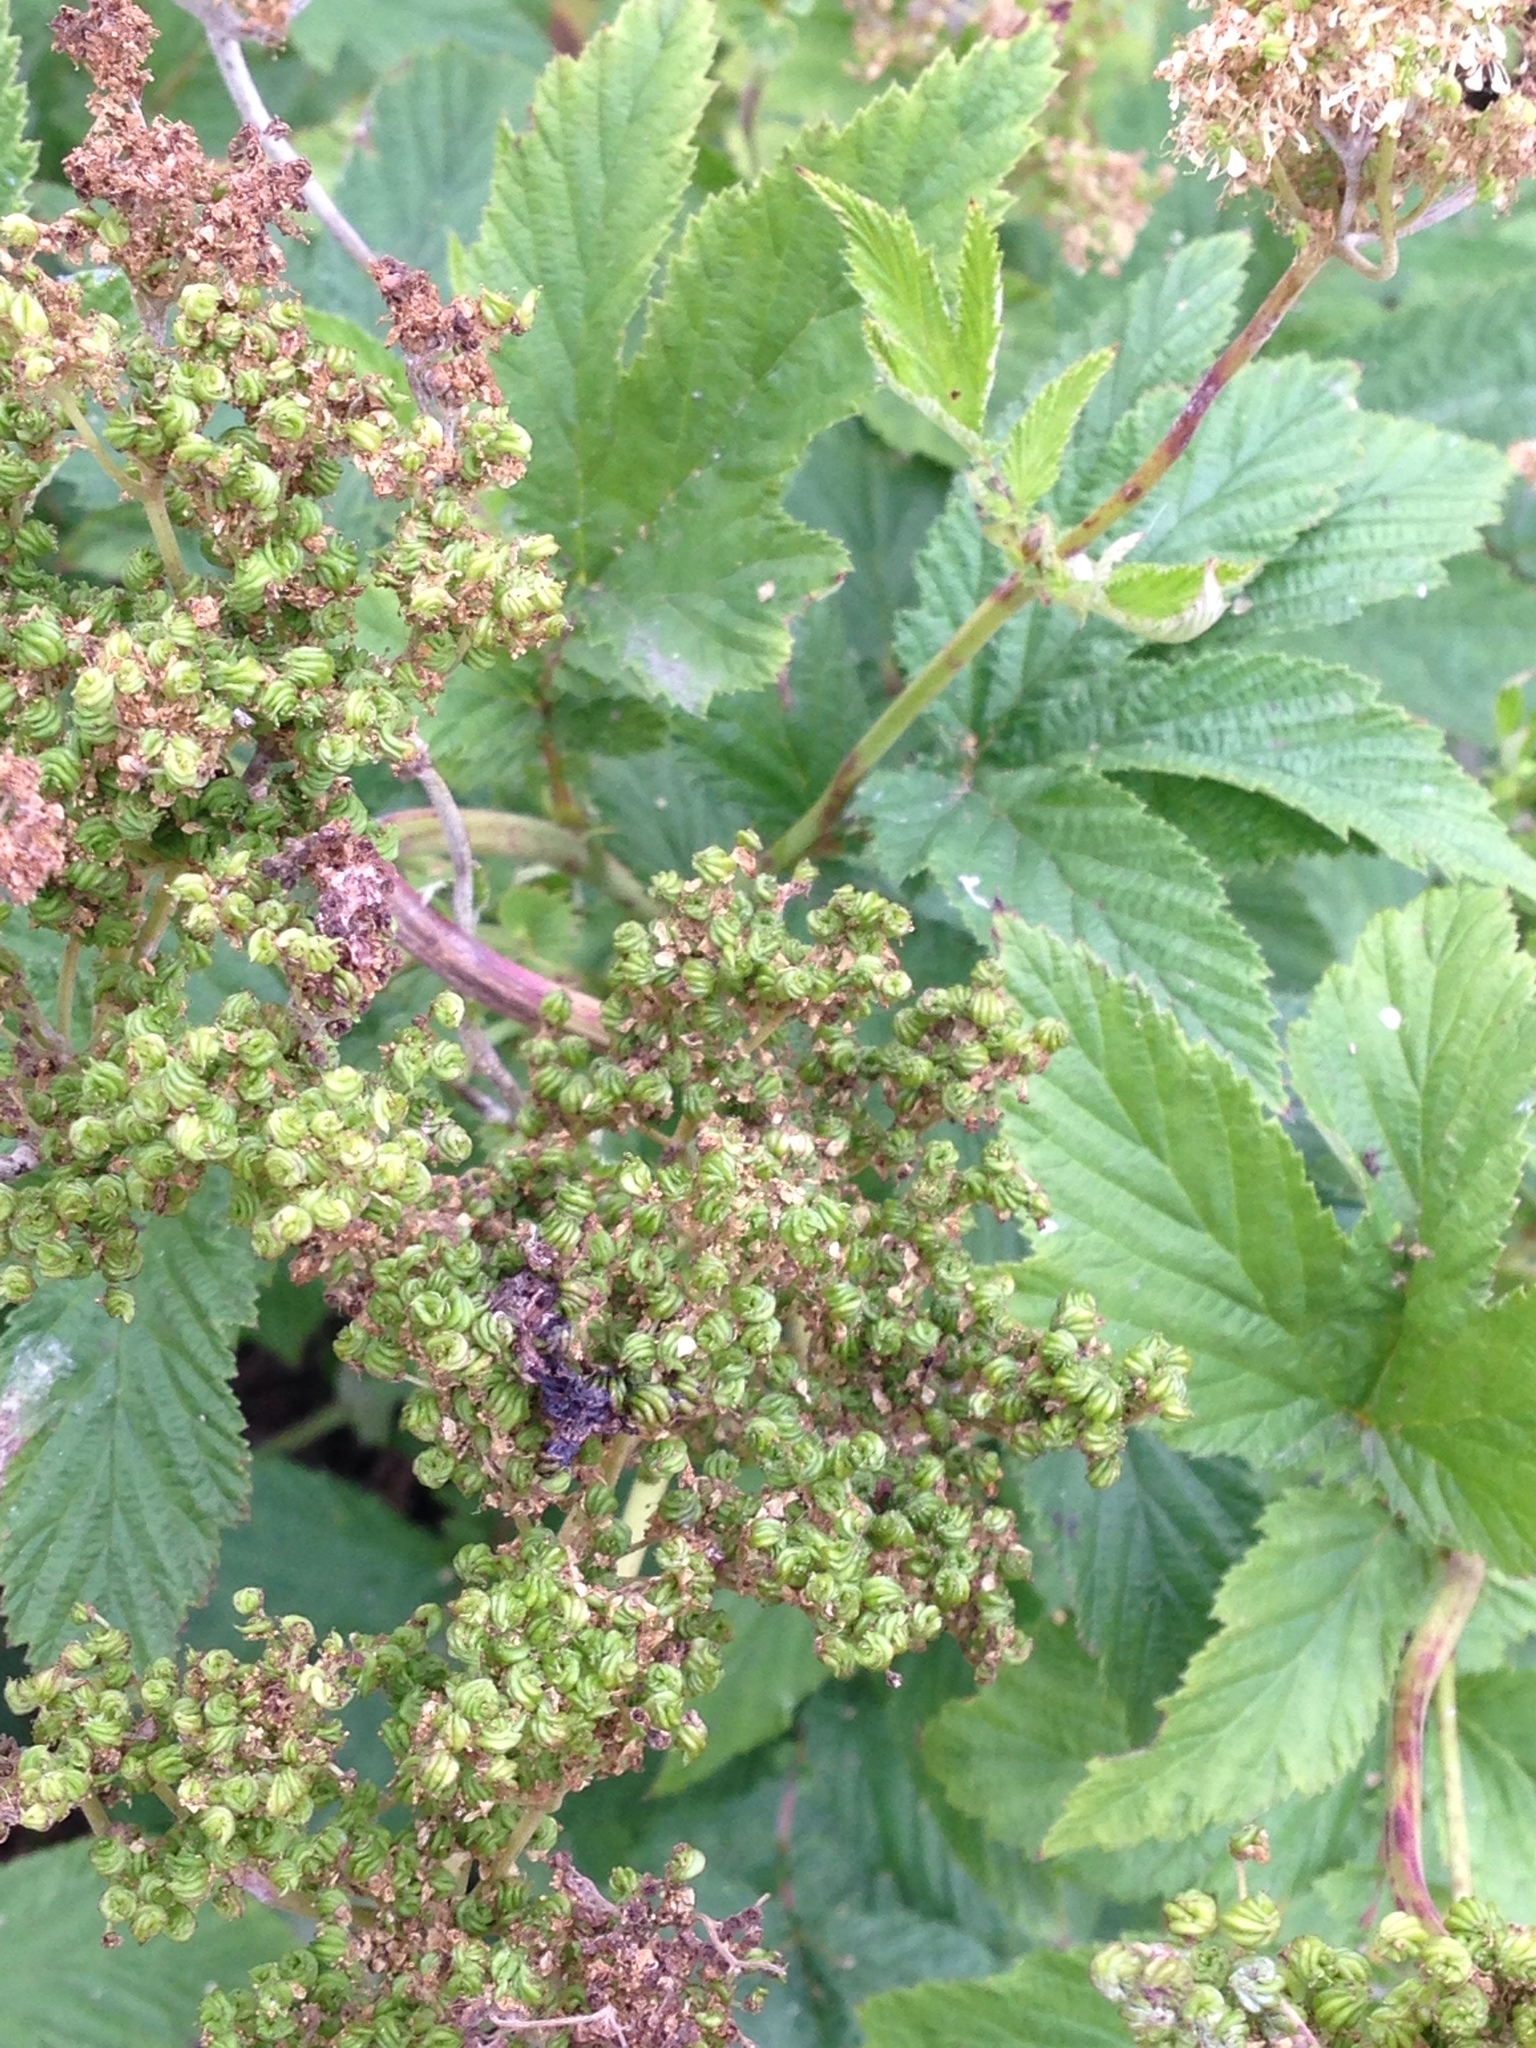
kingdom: Plantae
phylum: Tracheophyta
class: Magnoliopsida
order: Rosales
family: Rosaceae
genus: Filipendula
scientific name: Filipendula ulmaria
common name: Meadowsweet
